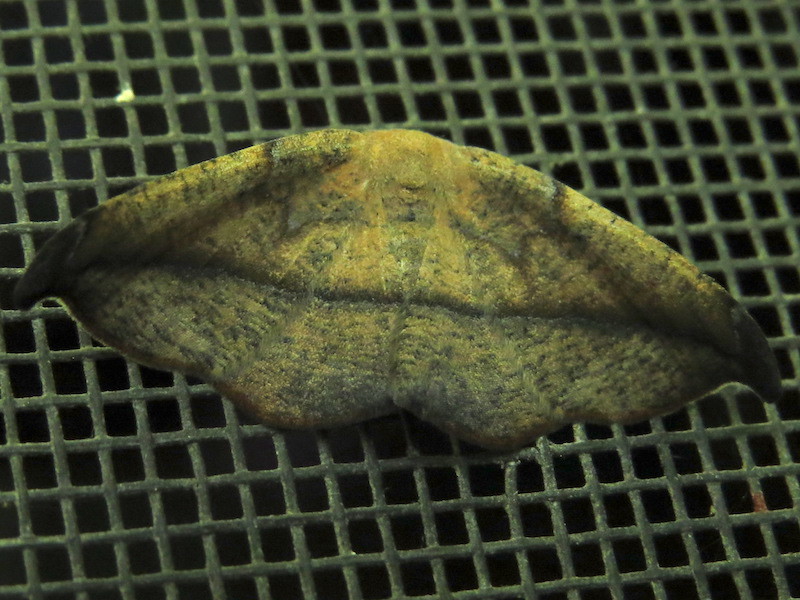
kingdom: Animalia
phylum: Arthropoda
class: Insecta
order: Lepidoptera
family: Geometridae
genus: Patalene
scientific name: Patalene olyzonaria
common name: Juniper geometer moth
